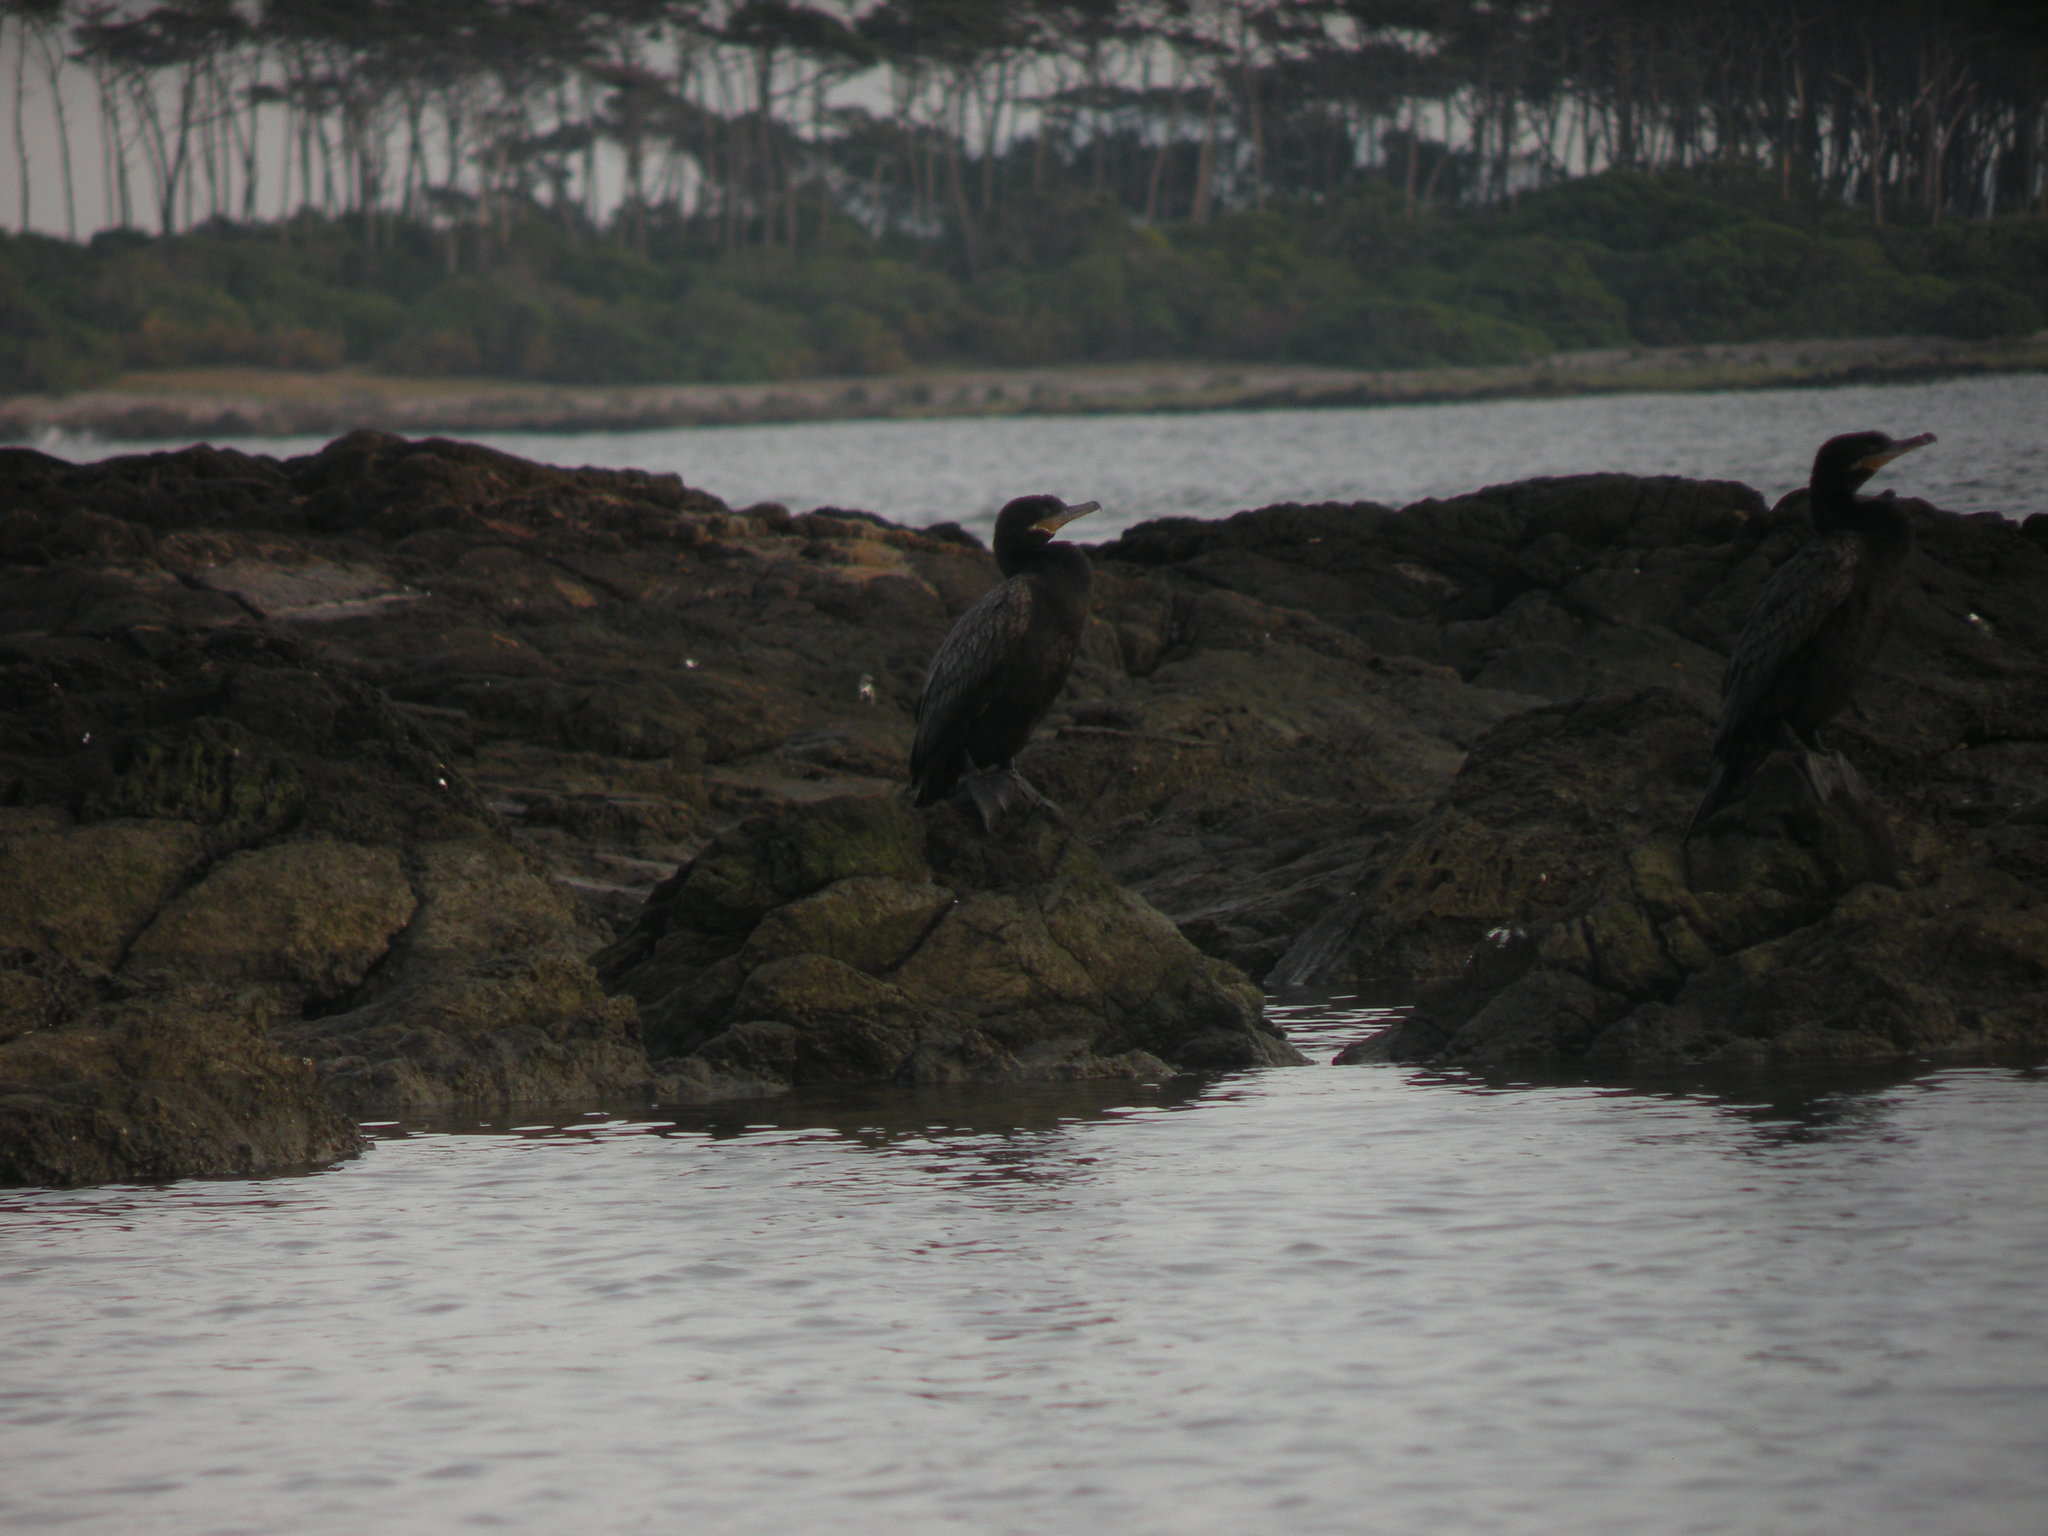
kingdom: Animalia
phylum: Chordata
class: Aves
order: Suliformes
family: Phalacrocoracidae
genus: Phalacrocorax
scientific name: Phalacrocorax brasilianus
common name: Neotropic cormorant
